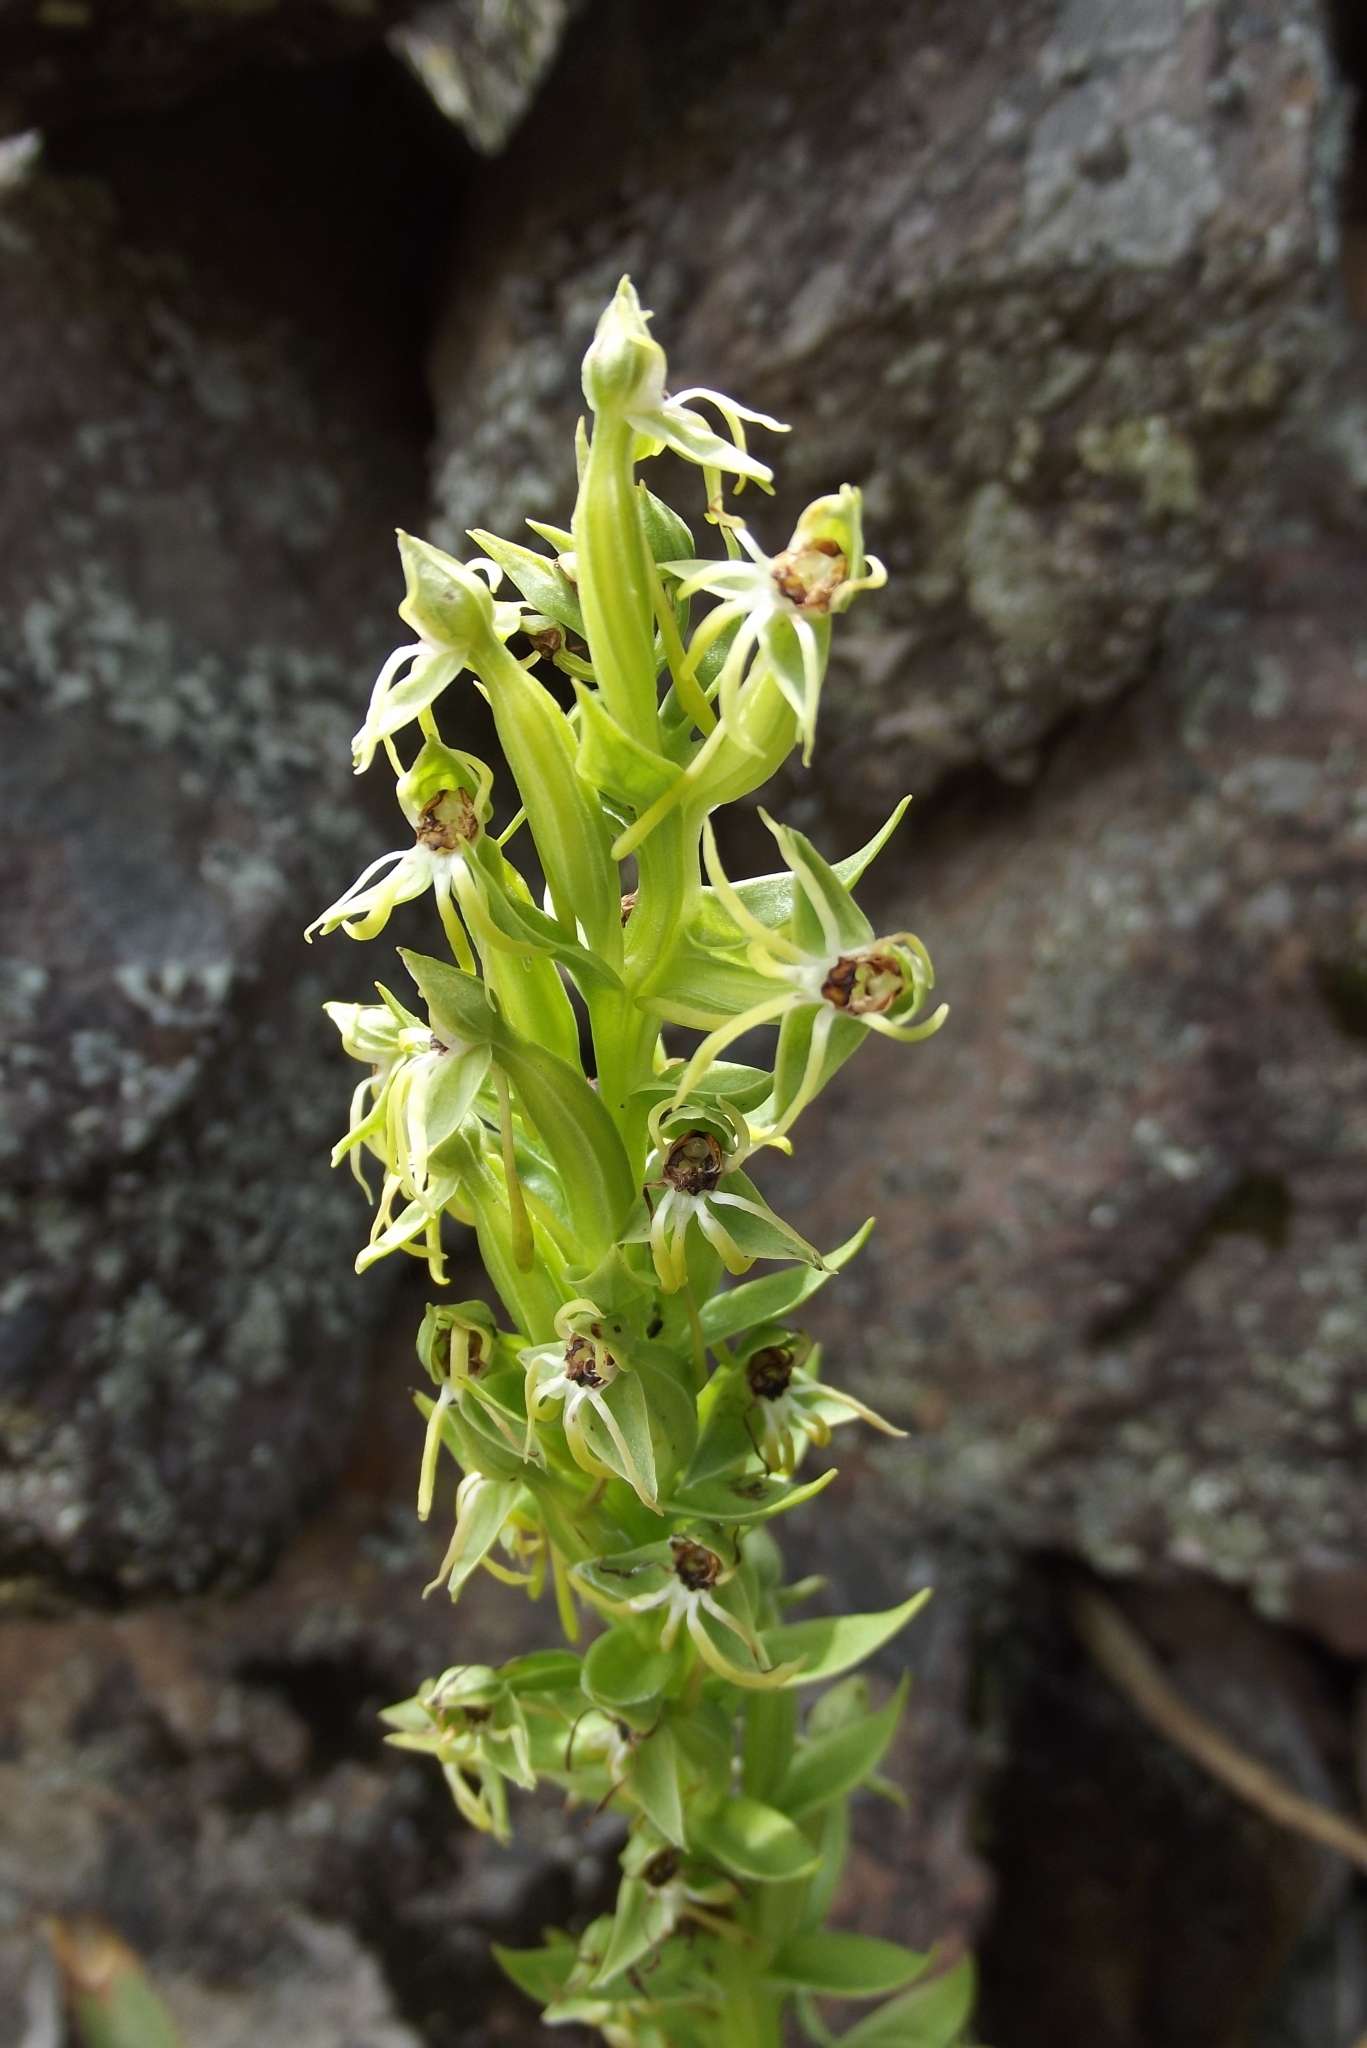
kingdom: Plantae
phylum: Tracheophyta
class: Liliopsida
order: Asparagales
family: Orchidaceae
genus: Habenaria
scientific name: Habenaria repens
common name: Water orchid
